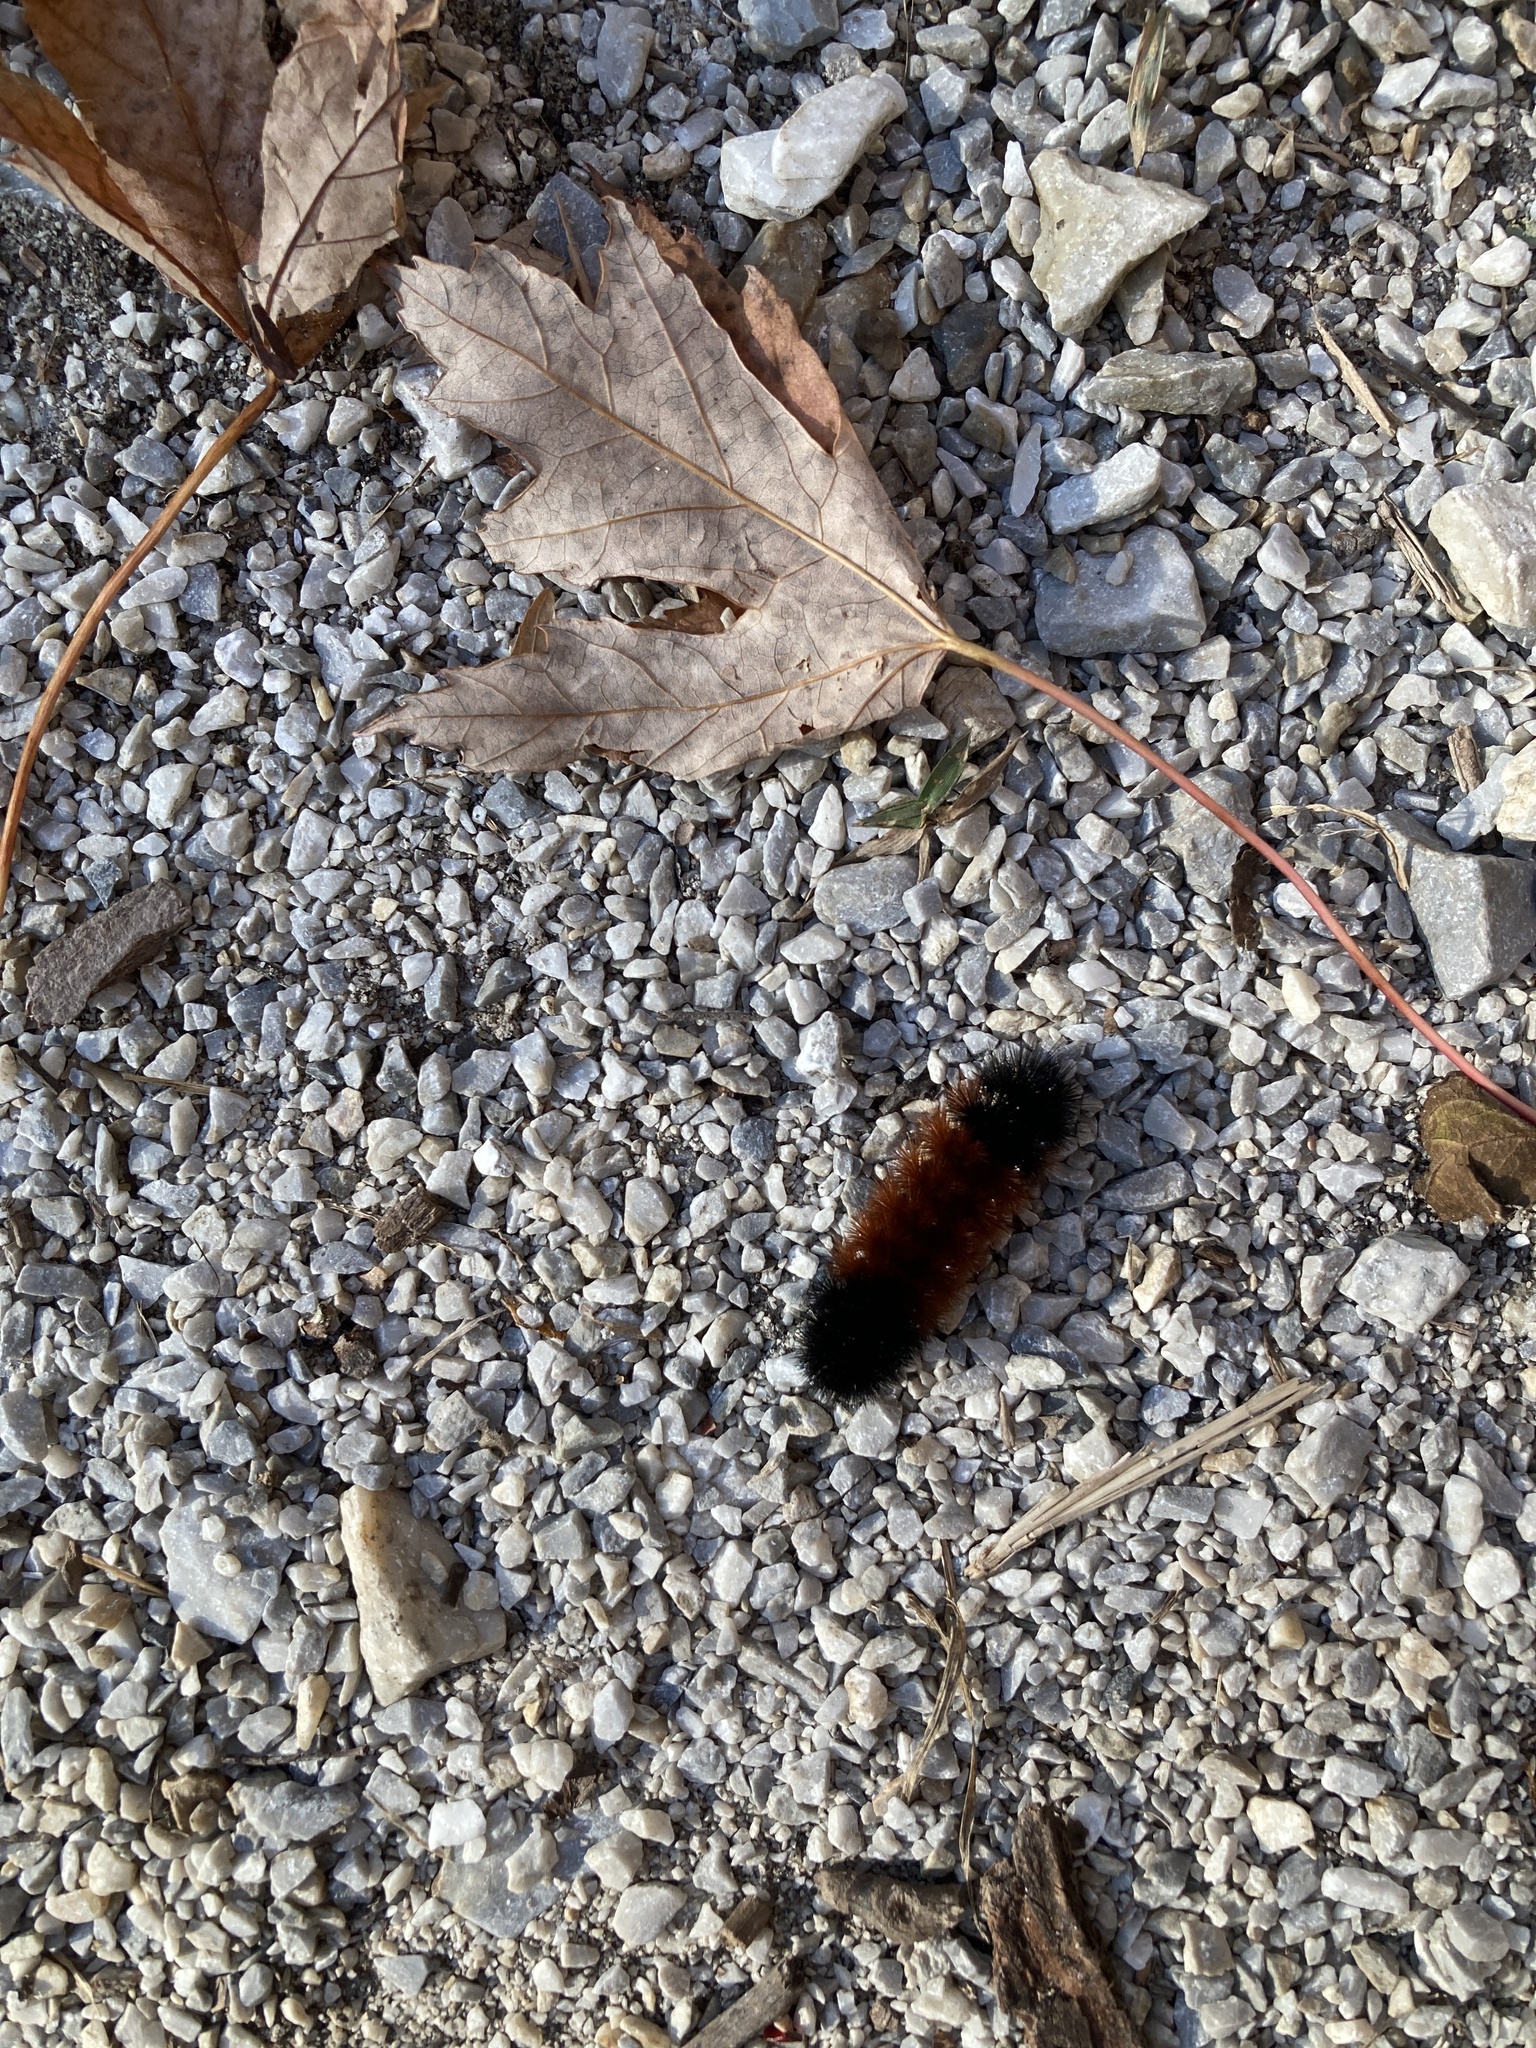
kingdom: Animalia
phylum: Arthropoda
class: Insecta
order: Lepidoptera
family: Erebidae
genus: Pyrrharctia
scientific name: Pyrrharctia isabella
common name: Isabella tiger moth
